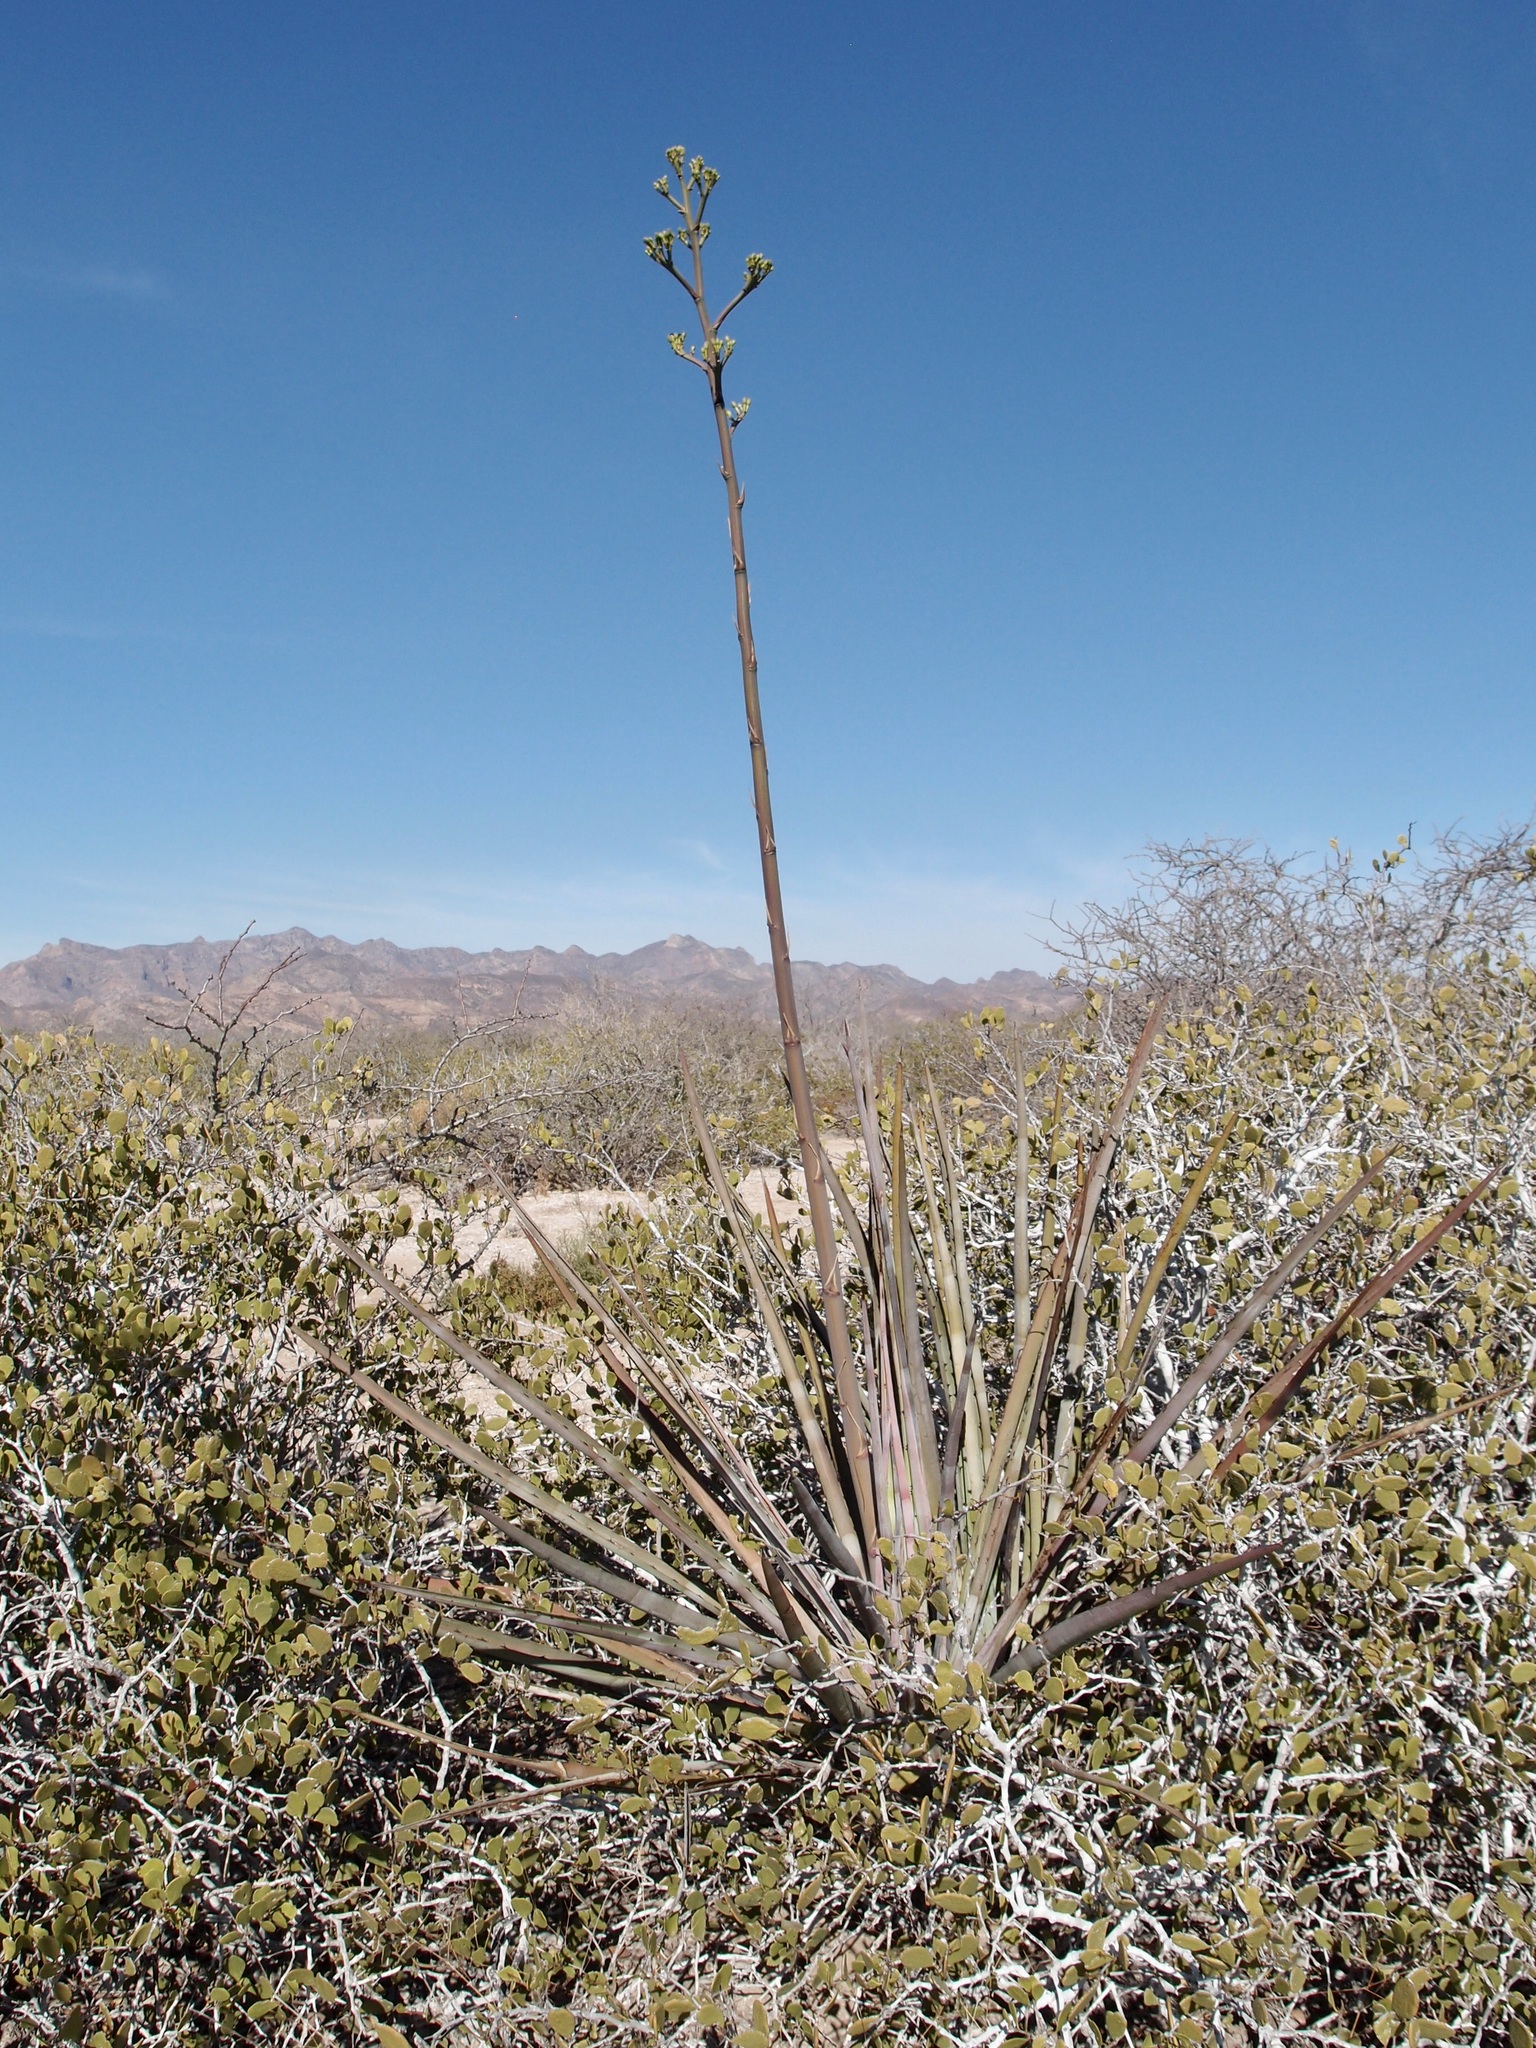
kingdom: Plantae
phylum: Tracheophyta
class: Liliopsida
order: Asparagales
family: Asparagaceae
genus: Agave
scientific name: Agave angustifolia
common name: Mescal agave
